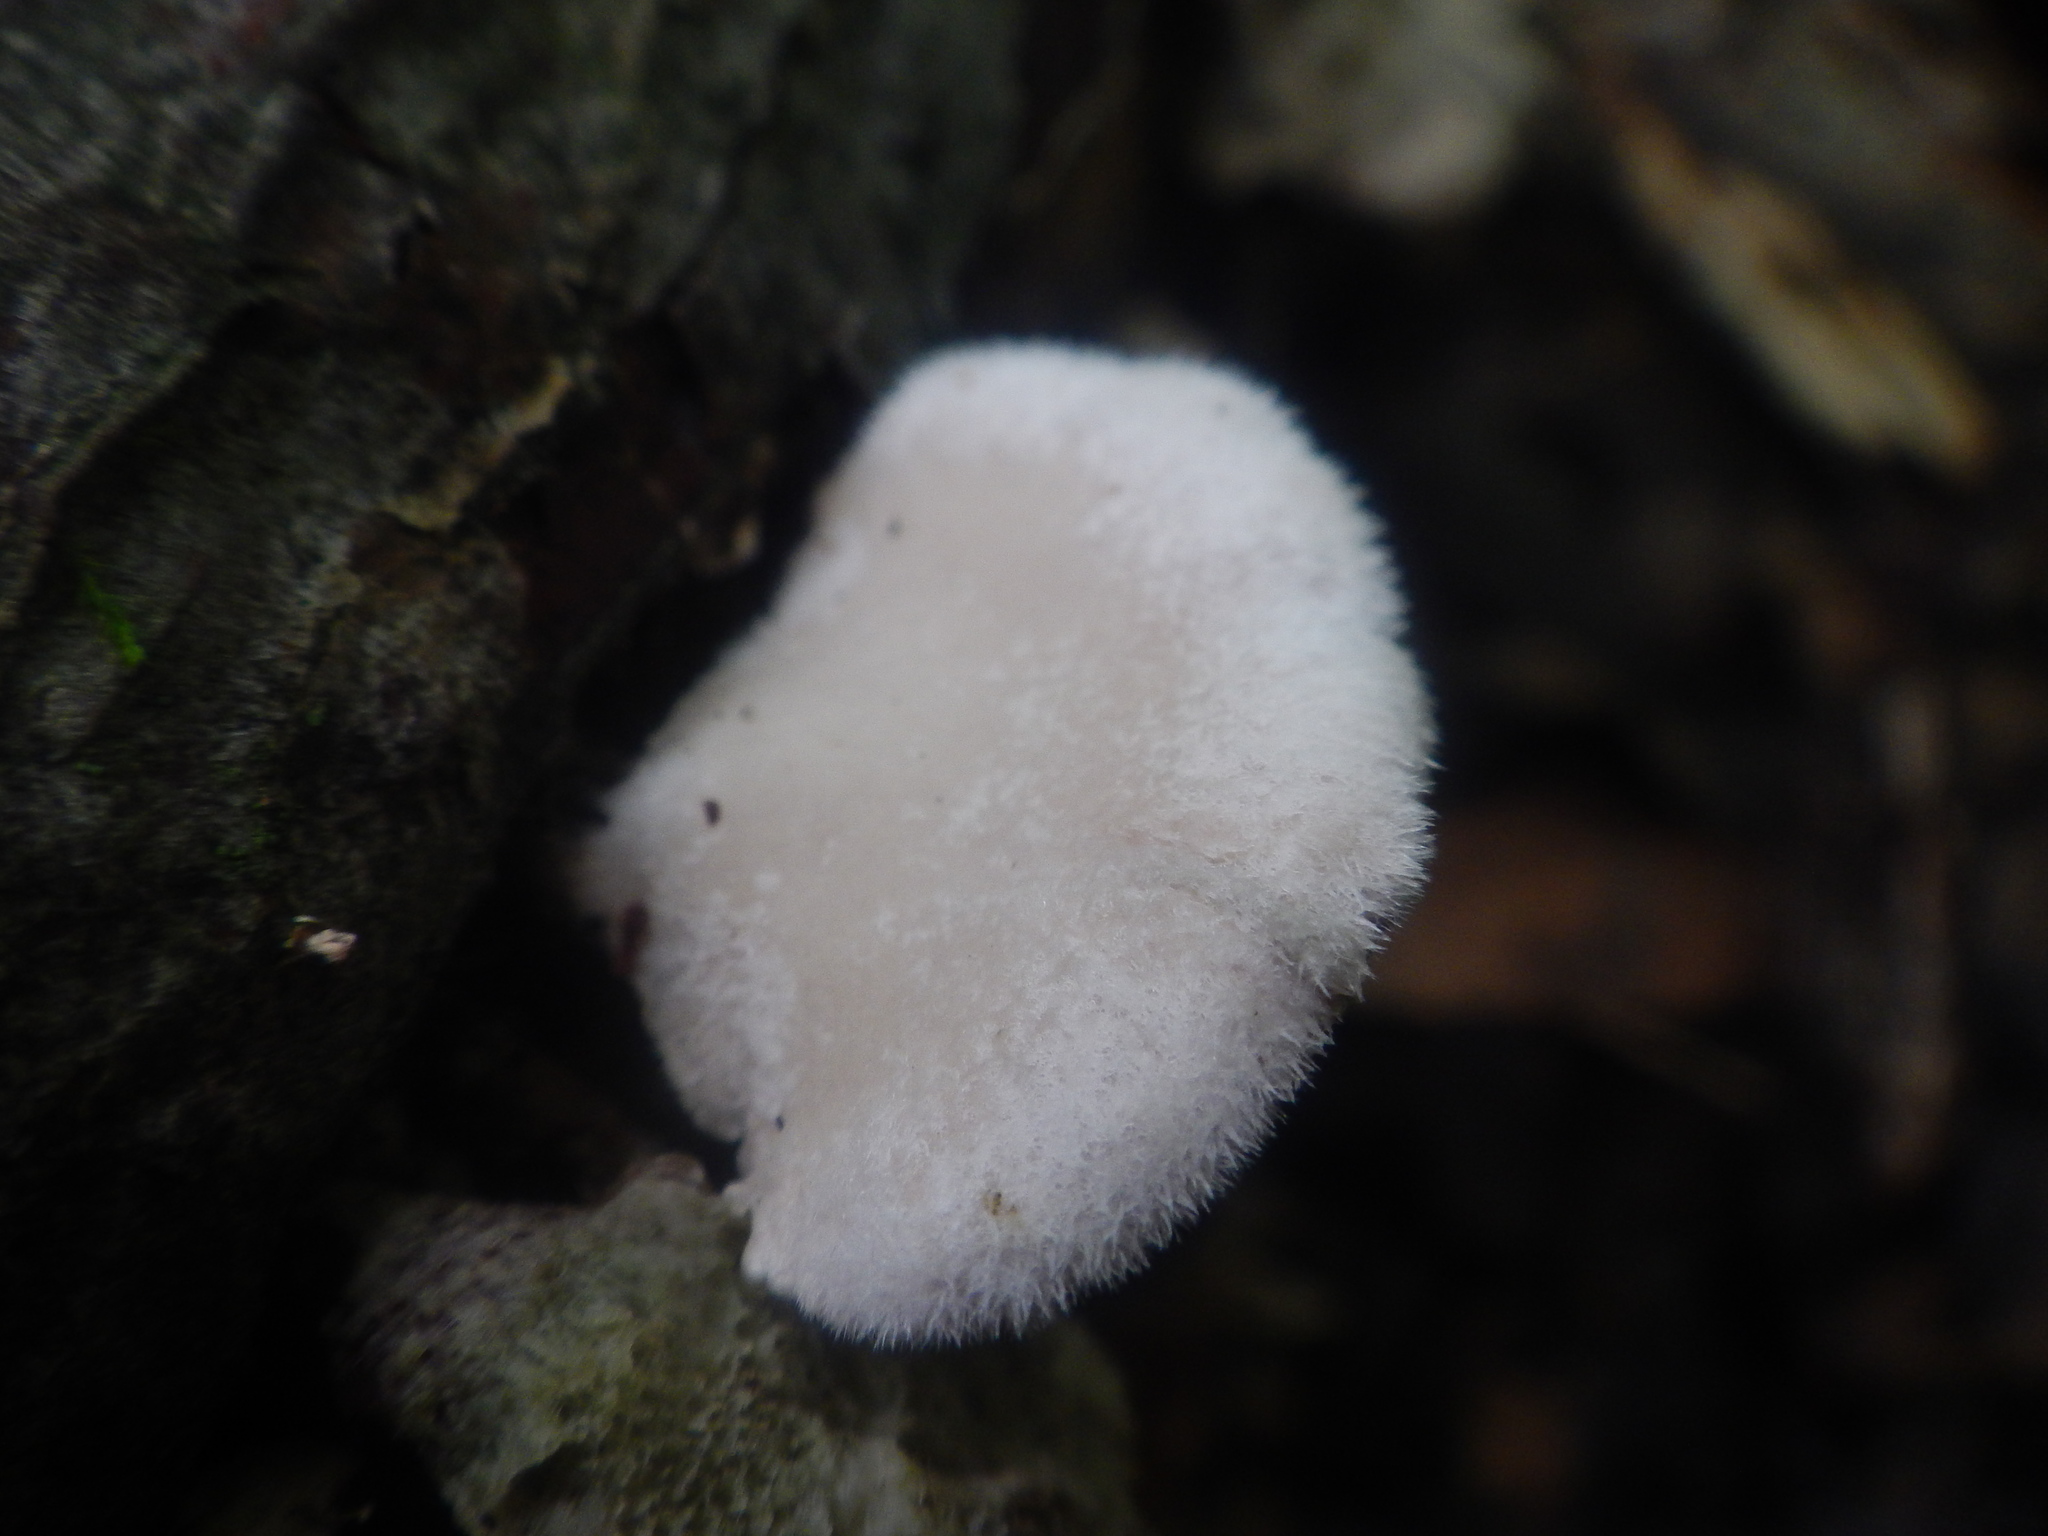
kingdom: Fungi
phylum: Basidiomycota
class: Agaricomycetes
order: Agaricales
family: Schizophyllaceae
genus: Schizophyllum
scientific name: Schizophyllum commune
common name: Common porecrust
